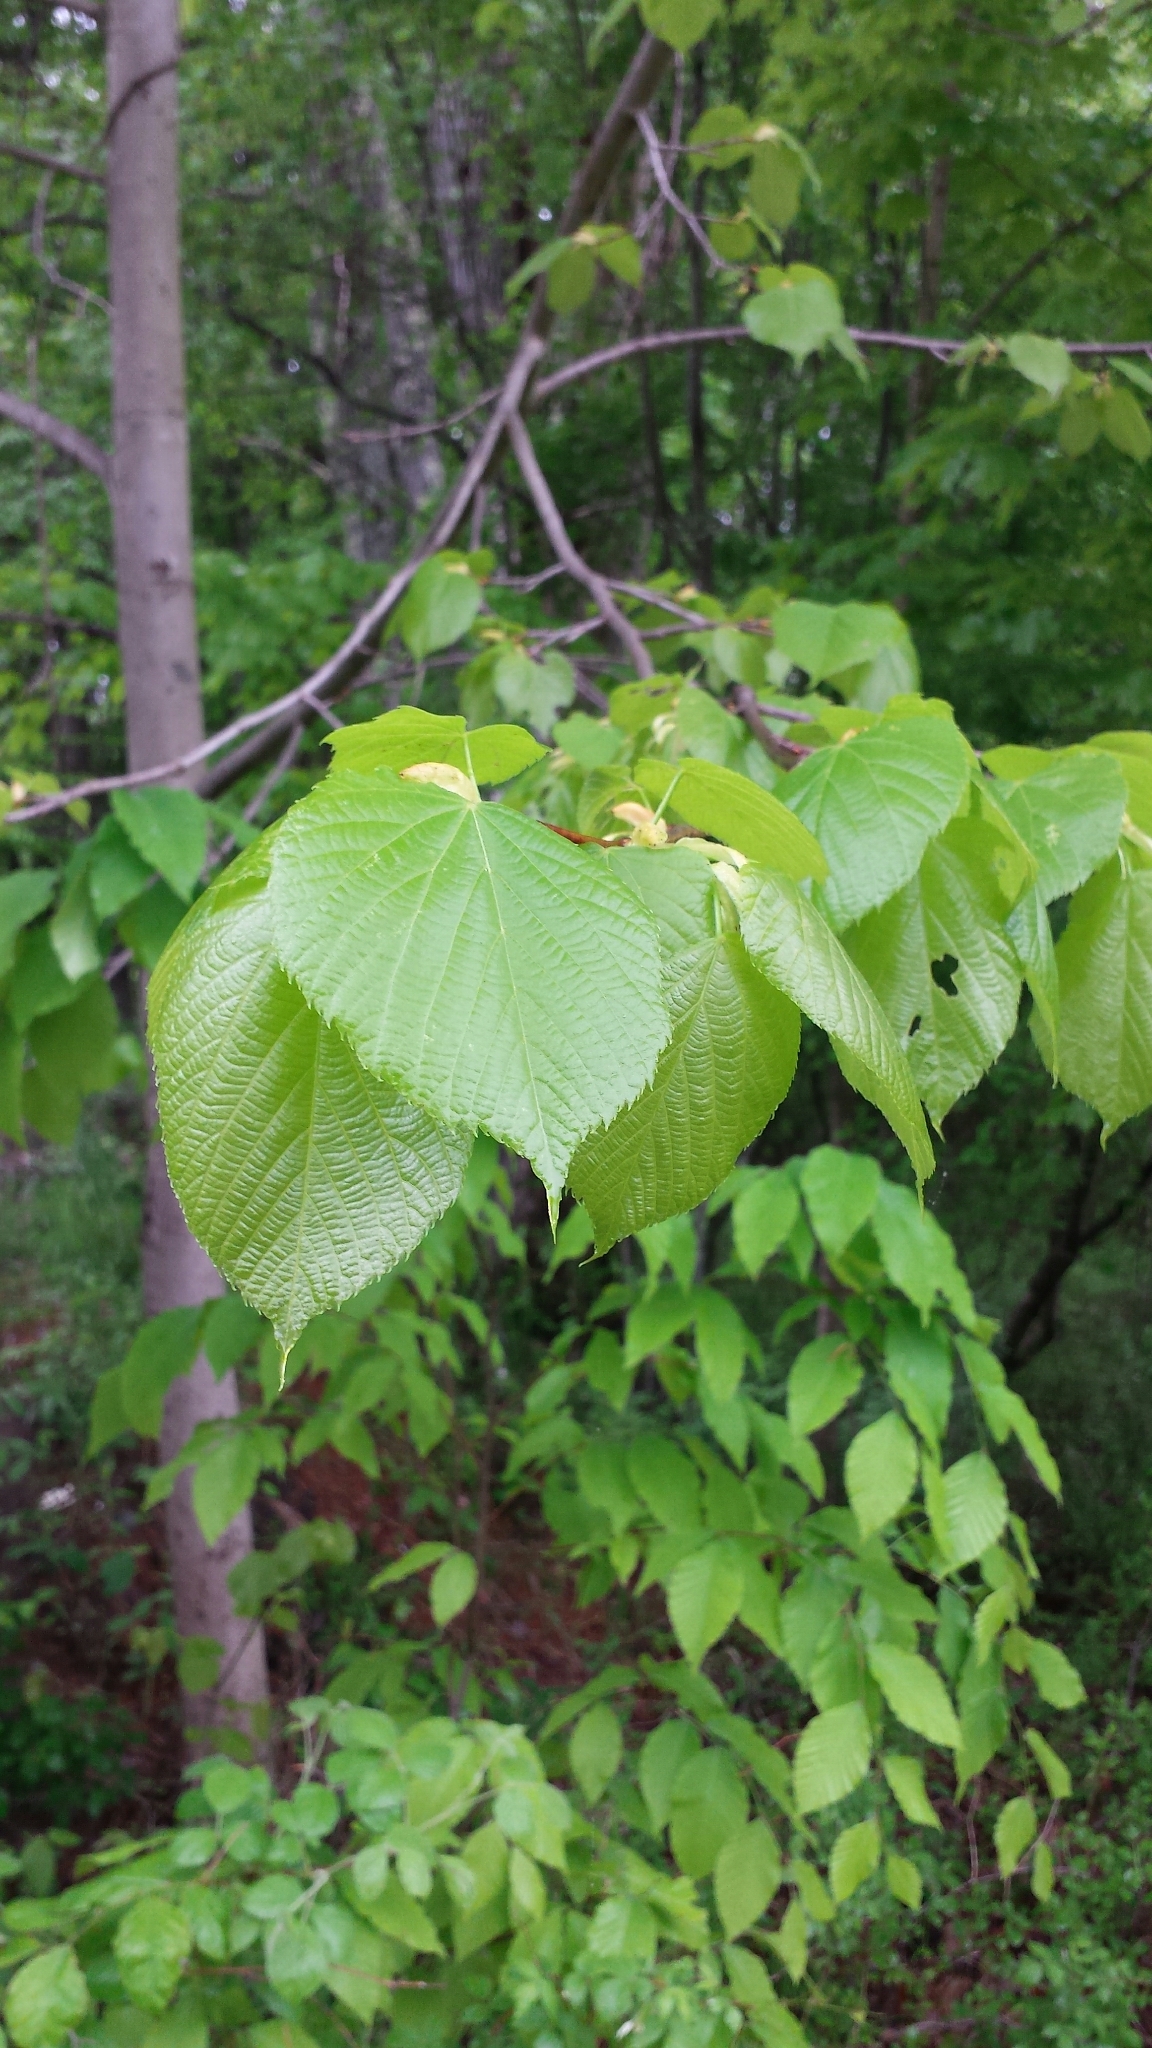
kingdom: Plantae
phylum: Tracheophyta
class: Magnoliopsida
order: Malvales
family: Malvaceae
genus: Tilia
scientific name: Tilia americana
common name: Basswood
